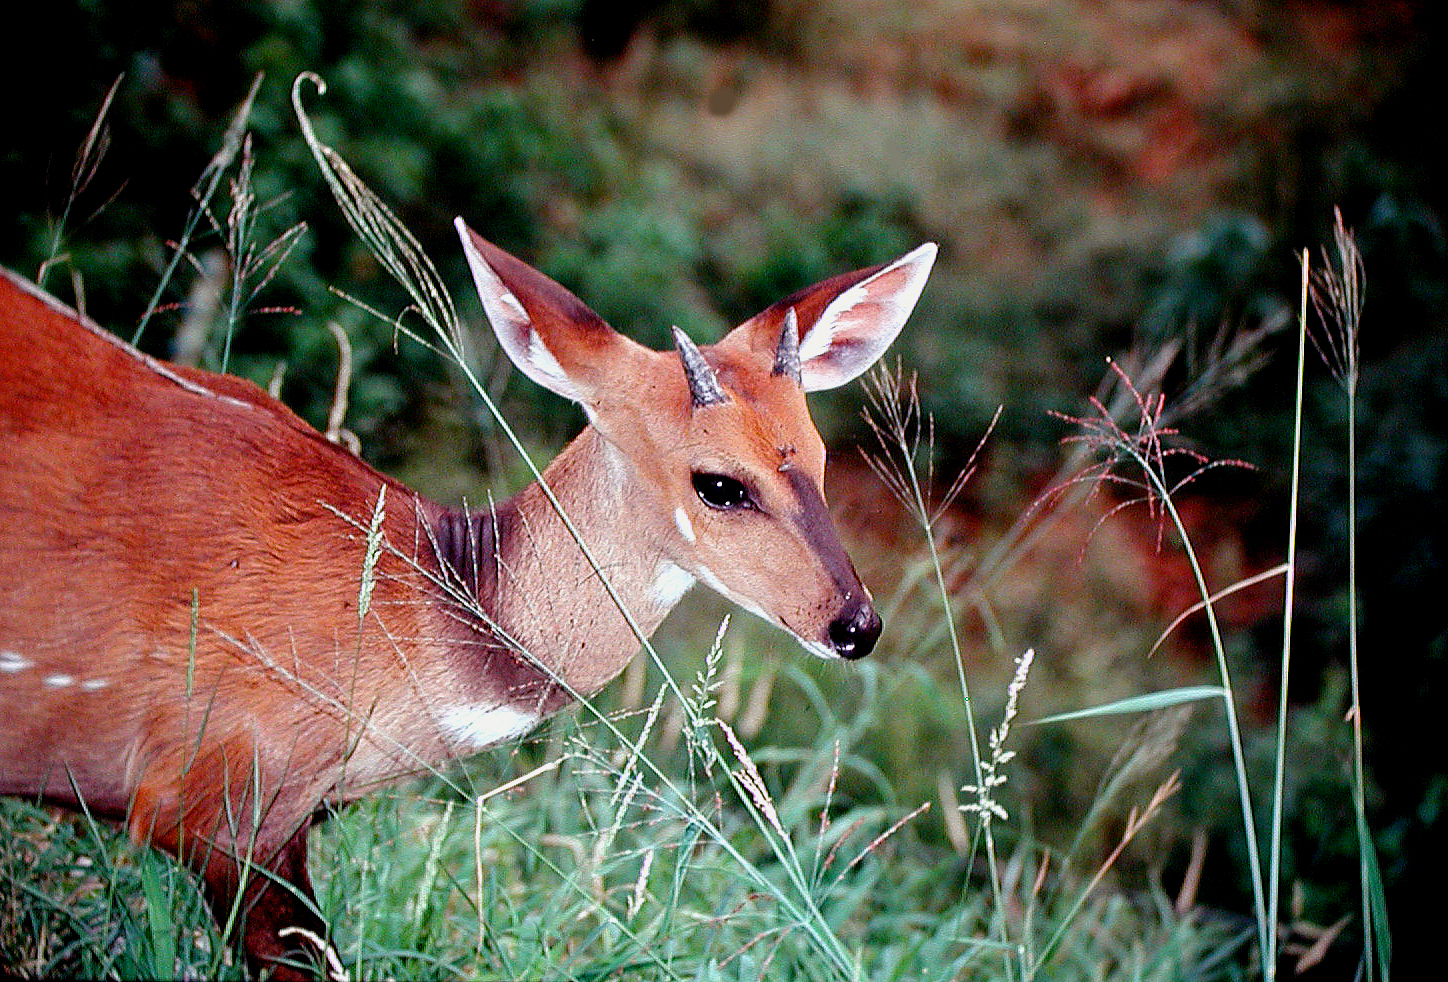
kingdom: Animalia
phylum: Chordata
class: Mammalia
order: Artiodactyla
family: Bovidae
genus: Tragelaphus
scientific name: Tragelaphus scriptus
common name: Bushbuck
